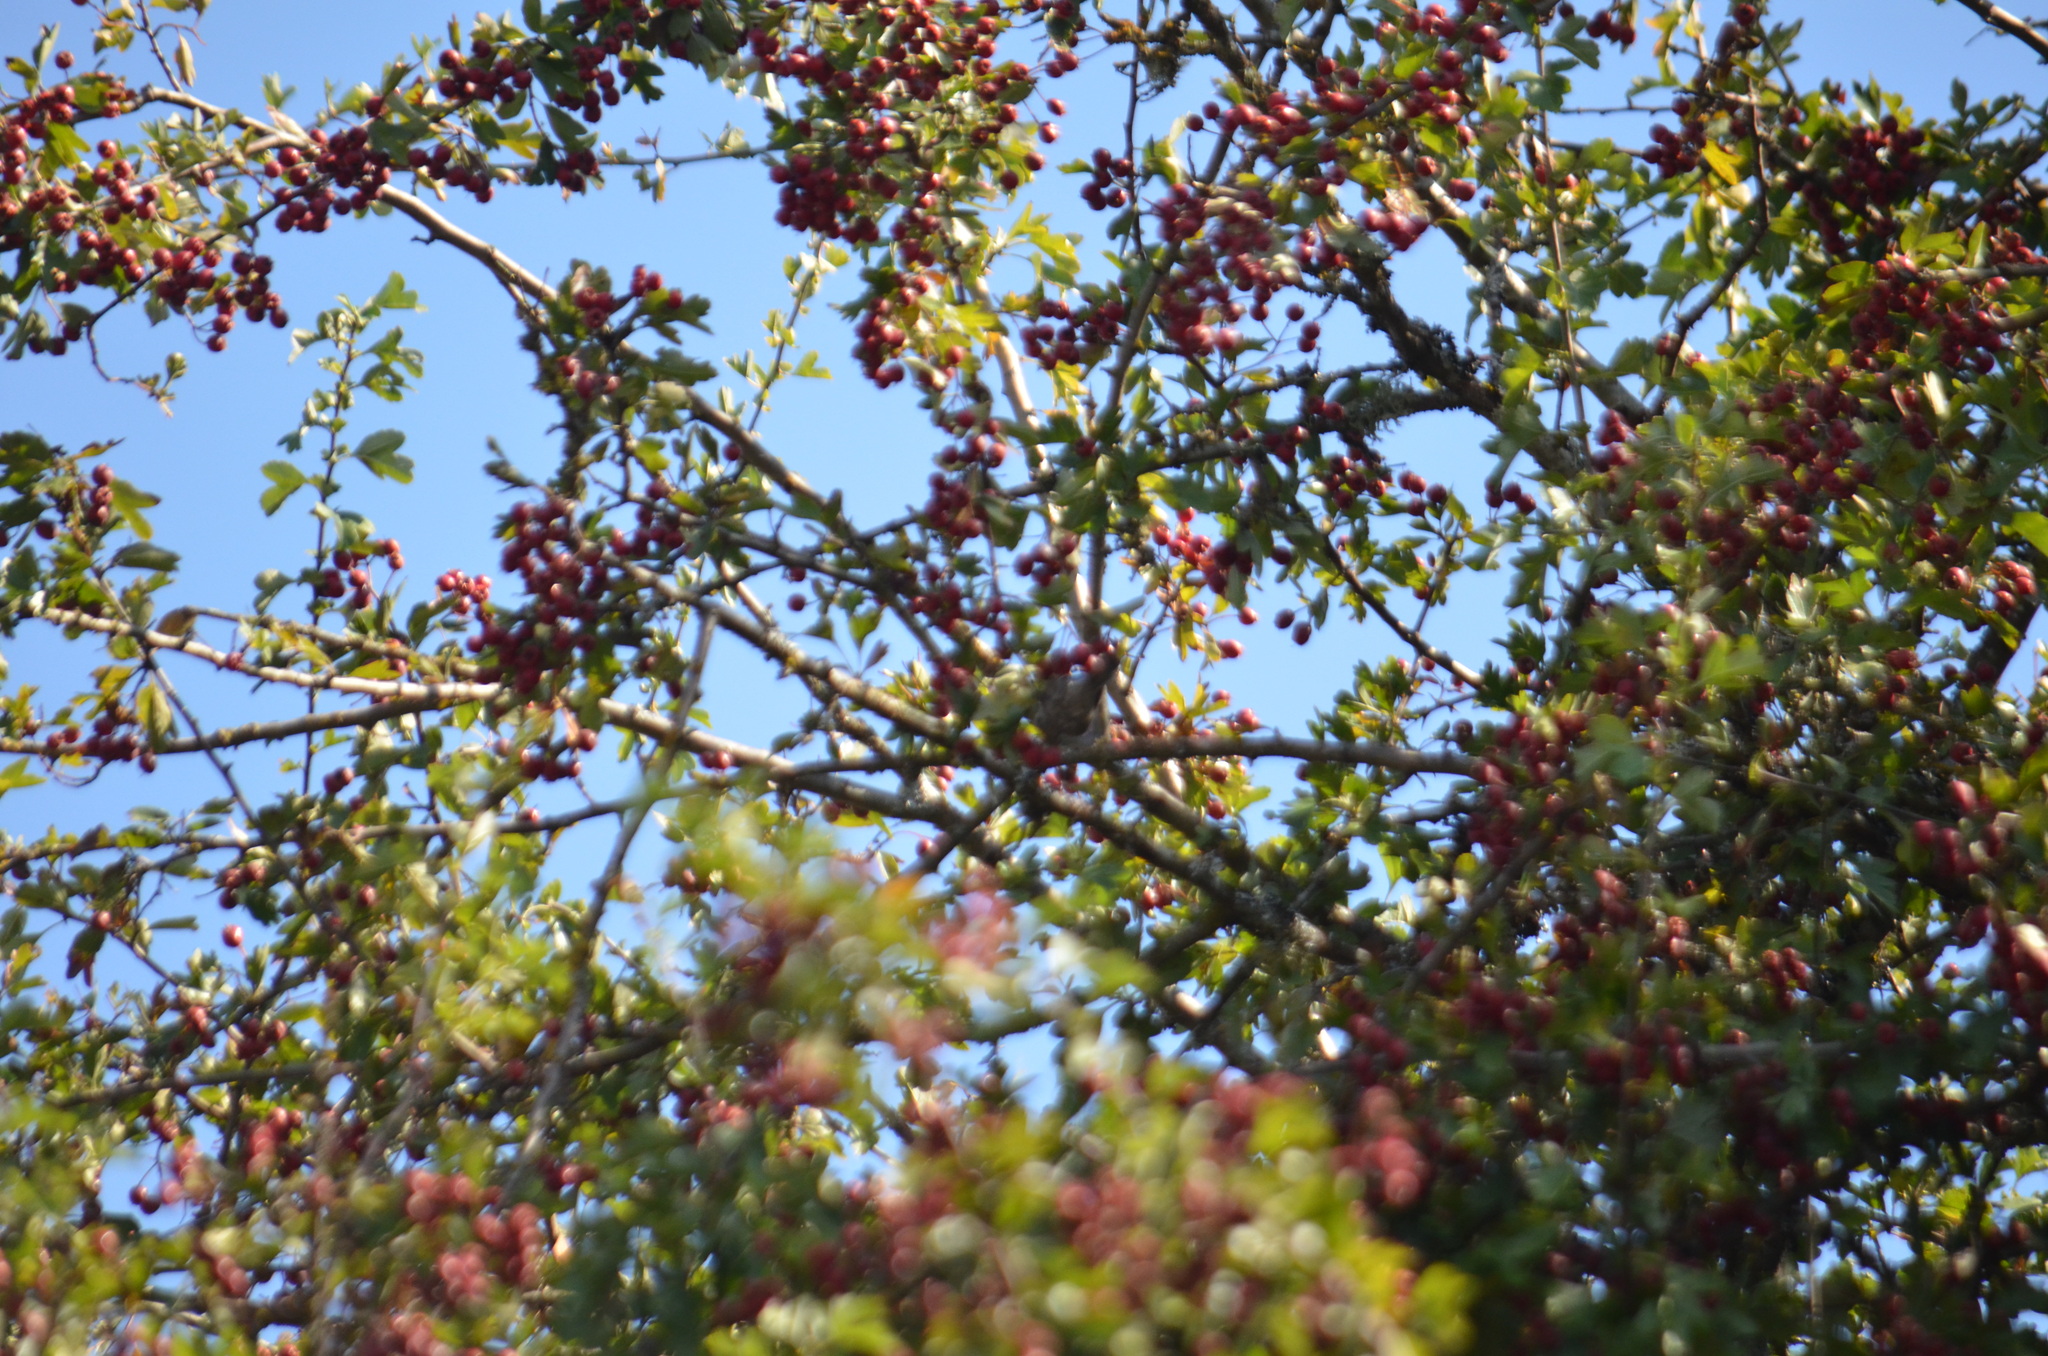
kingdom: Animalia
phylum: Chordata
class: Aves
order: Passeriformes
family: Aegithalidae
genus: Psaltriparus
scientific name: Psaltriparus minimus
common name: American bushtit
